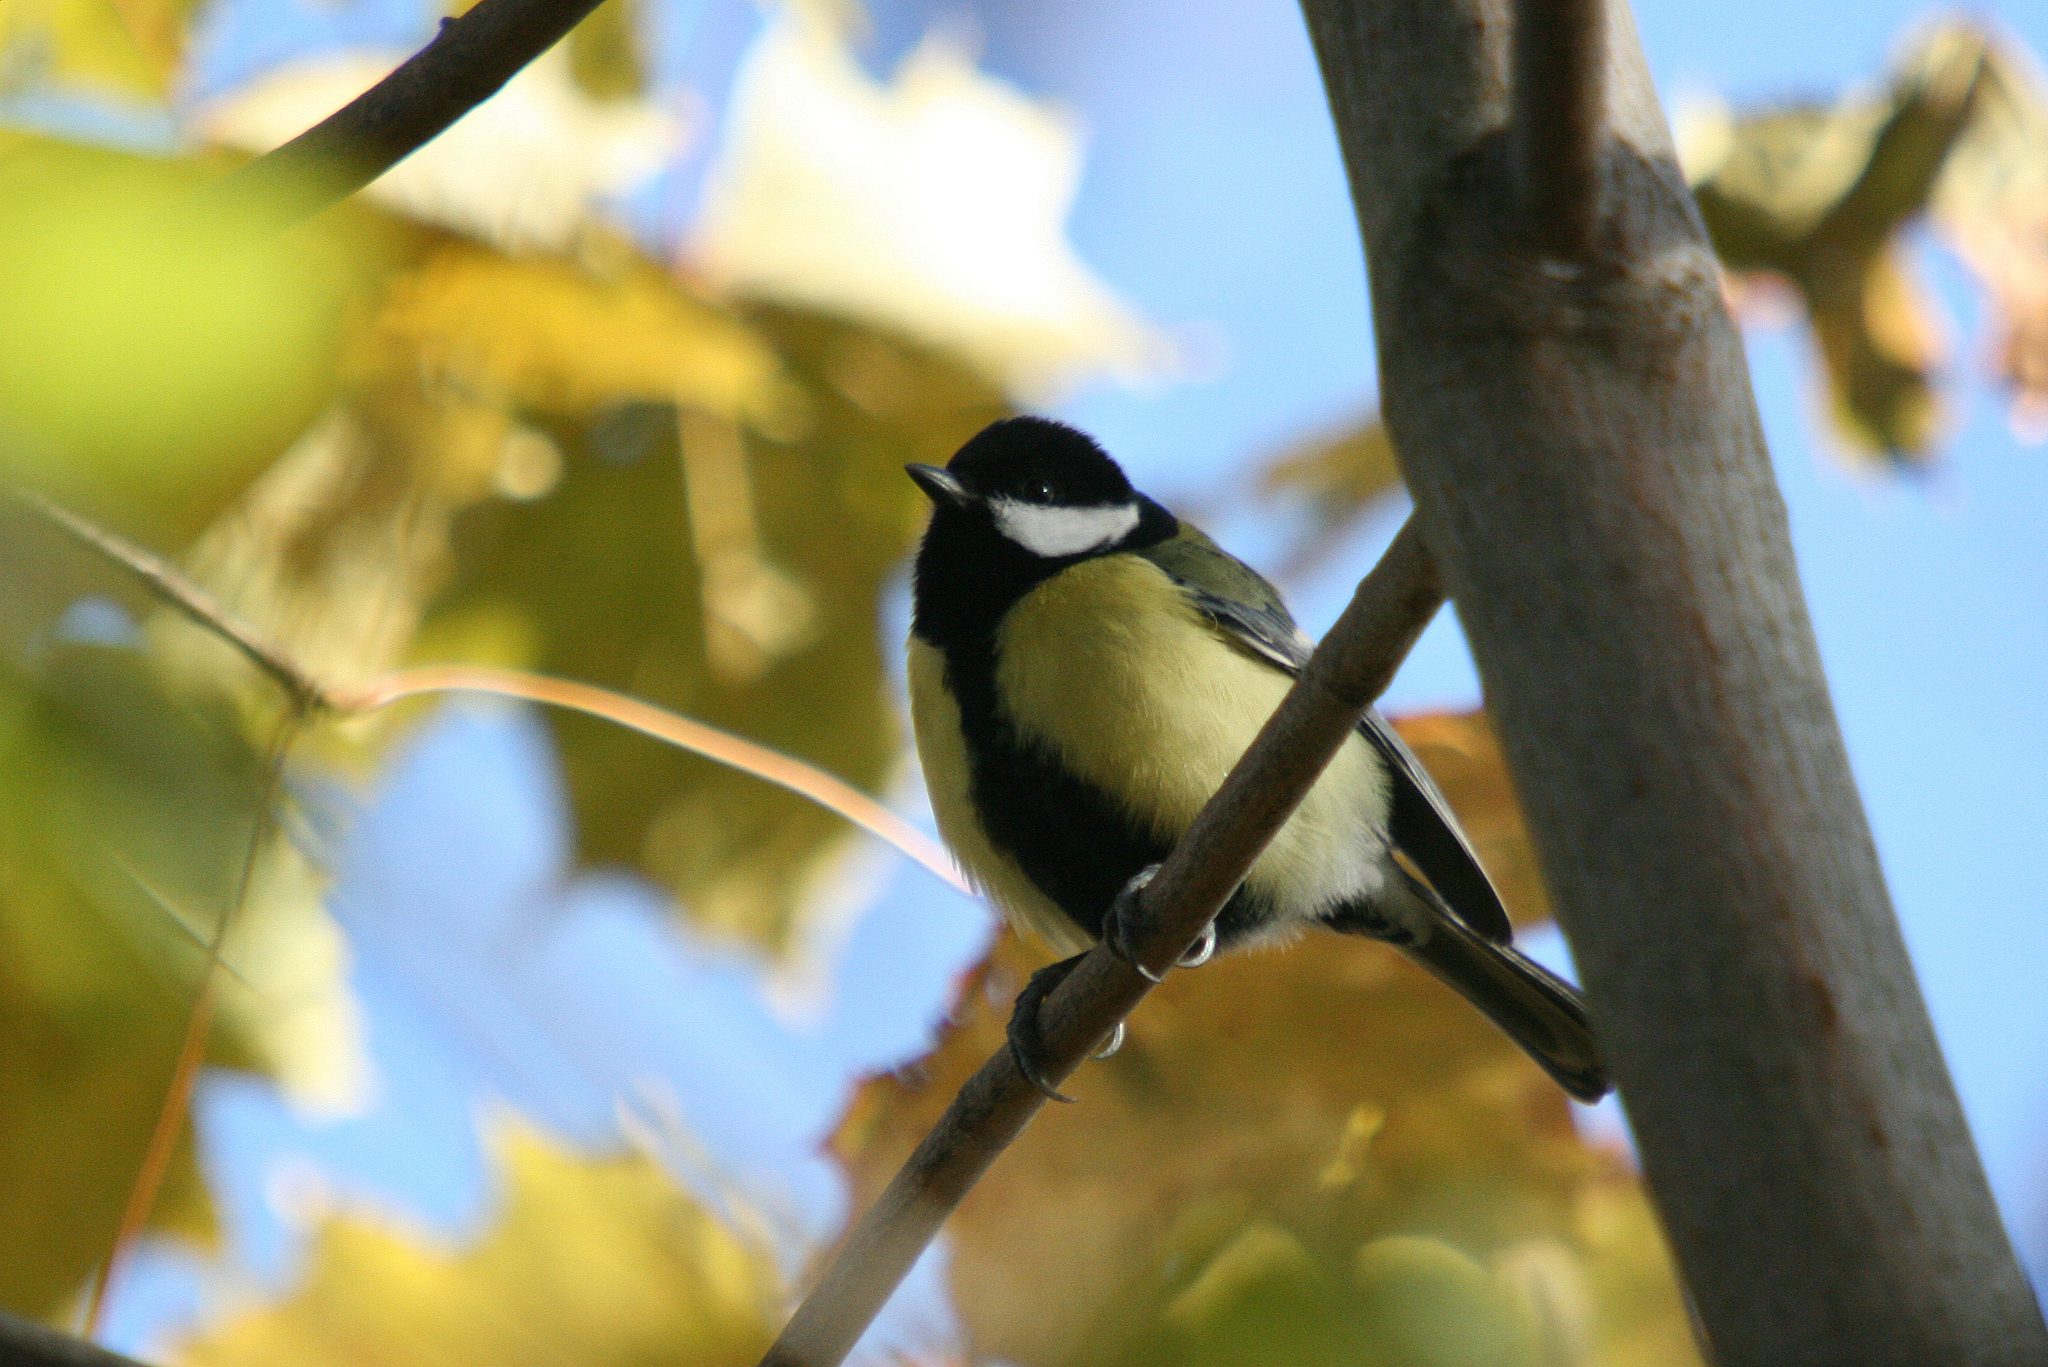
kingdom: Animalia
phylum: Chordata
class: Aves
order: Passeriformes
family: Paridae
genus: Parus
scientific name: Parus major
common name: Great tit
